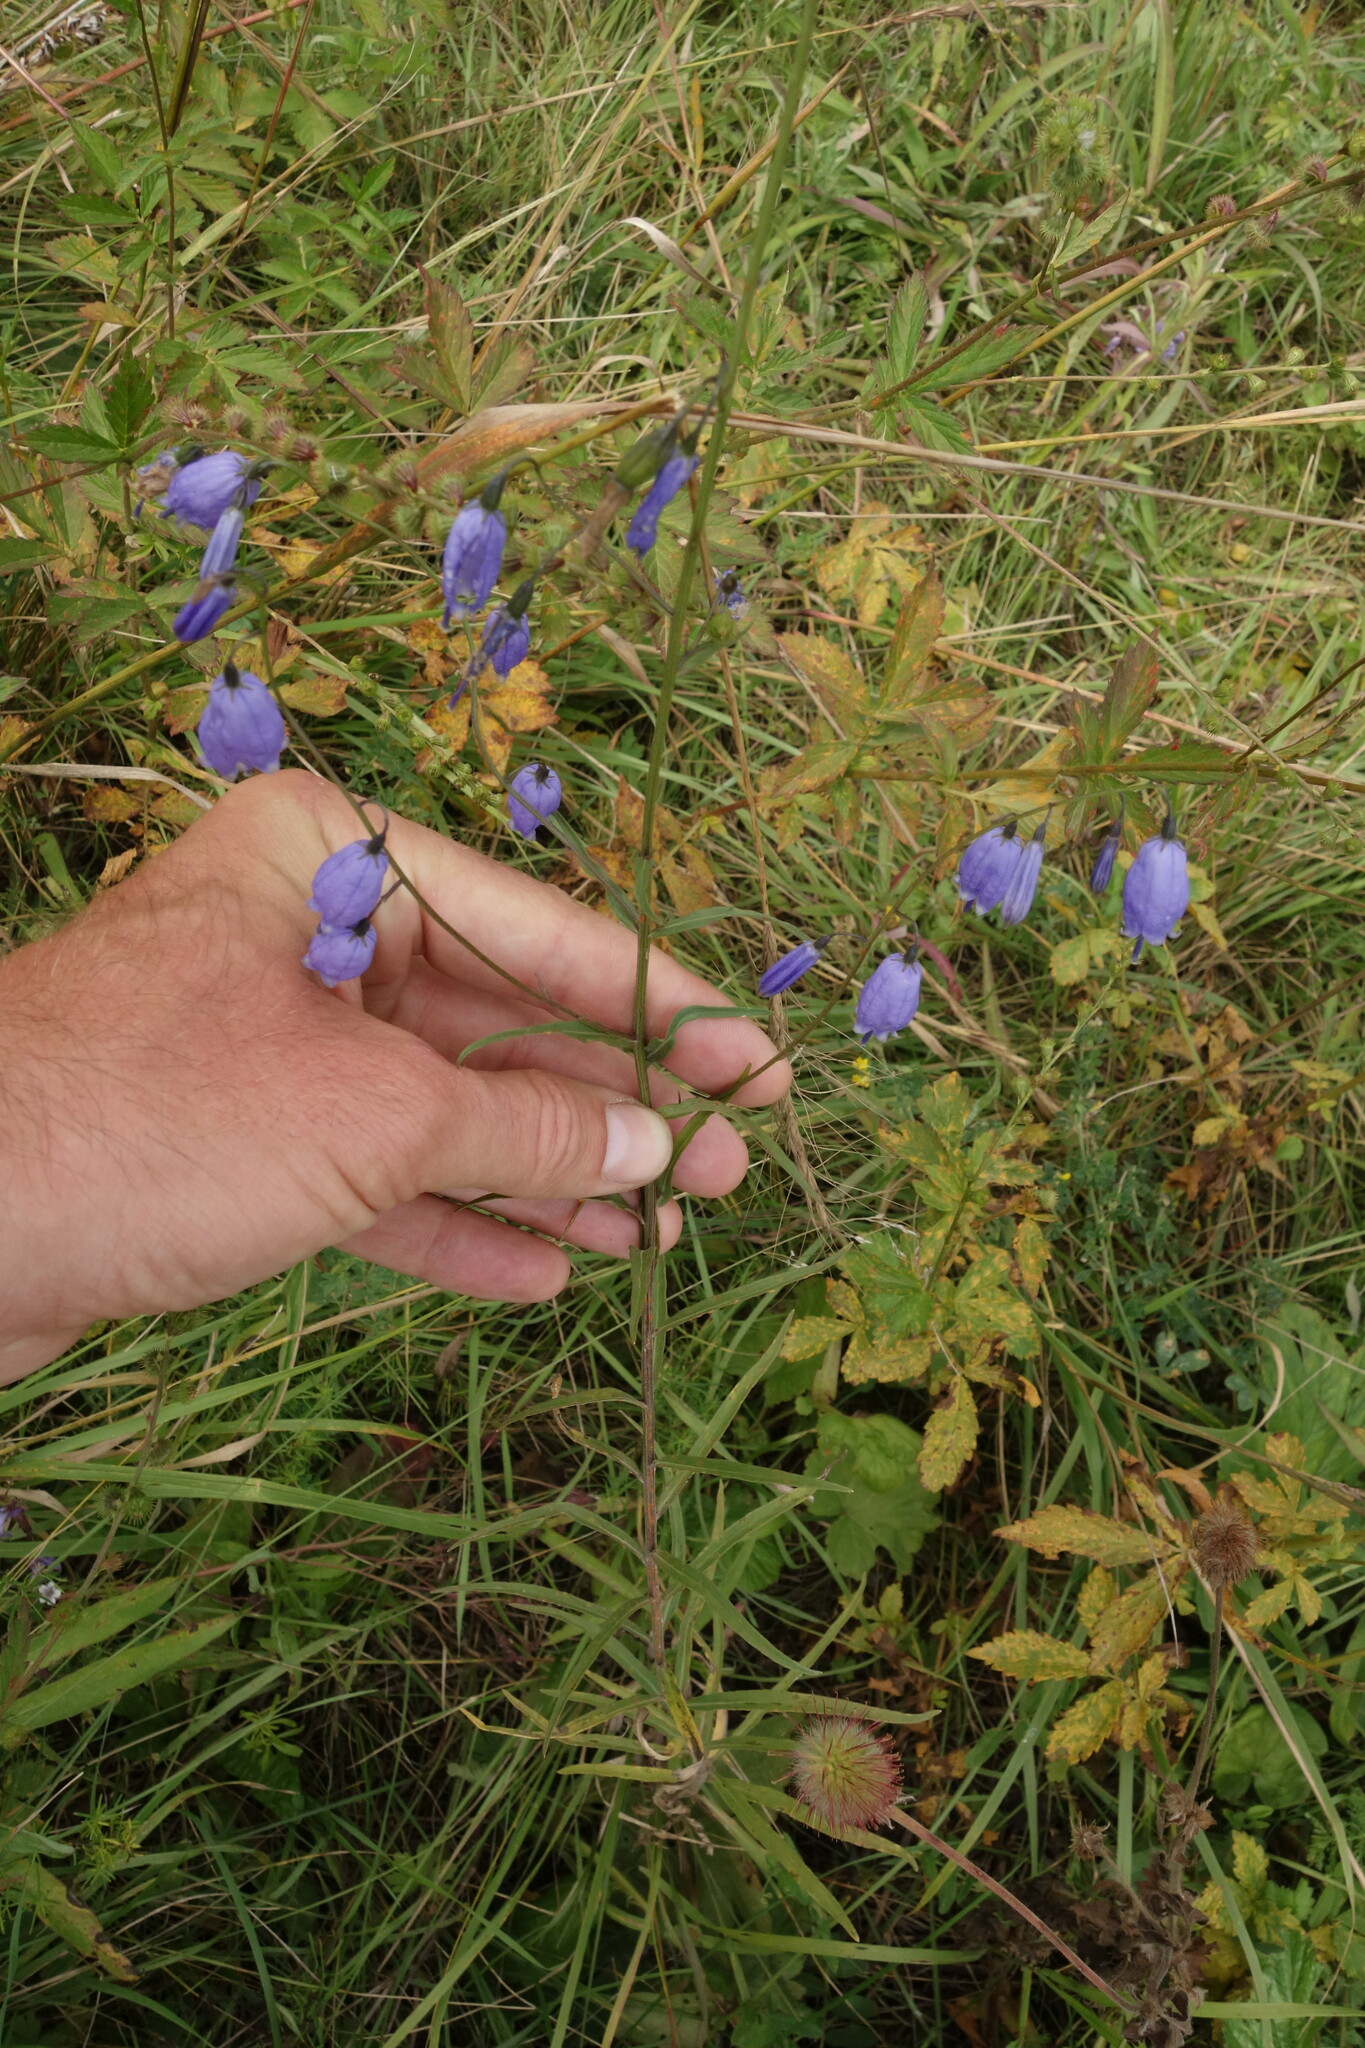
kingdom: Plantae
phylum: Tracheophyta
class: Magnoliopsida
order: Asterales
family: Campanulaceae
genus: Adenophora
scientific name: Adenophora stenanthina
